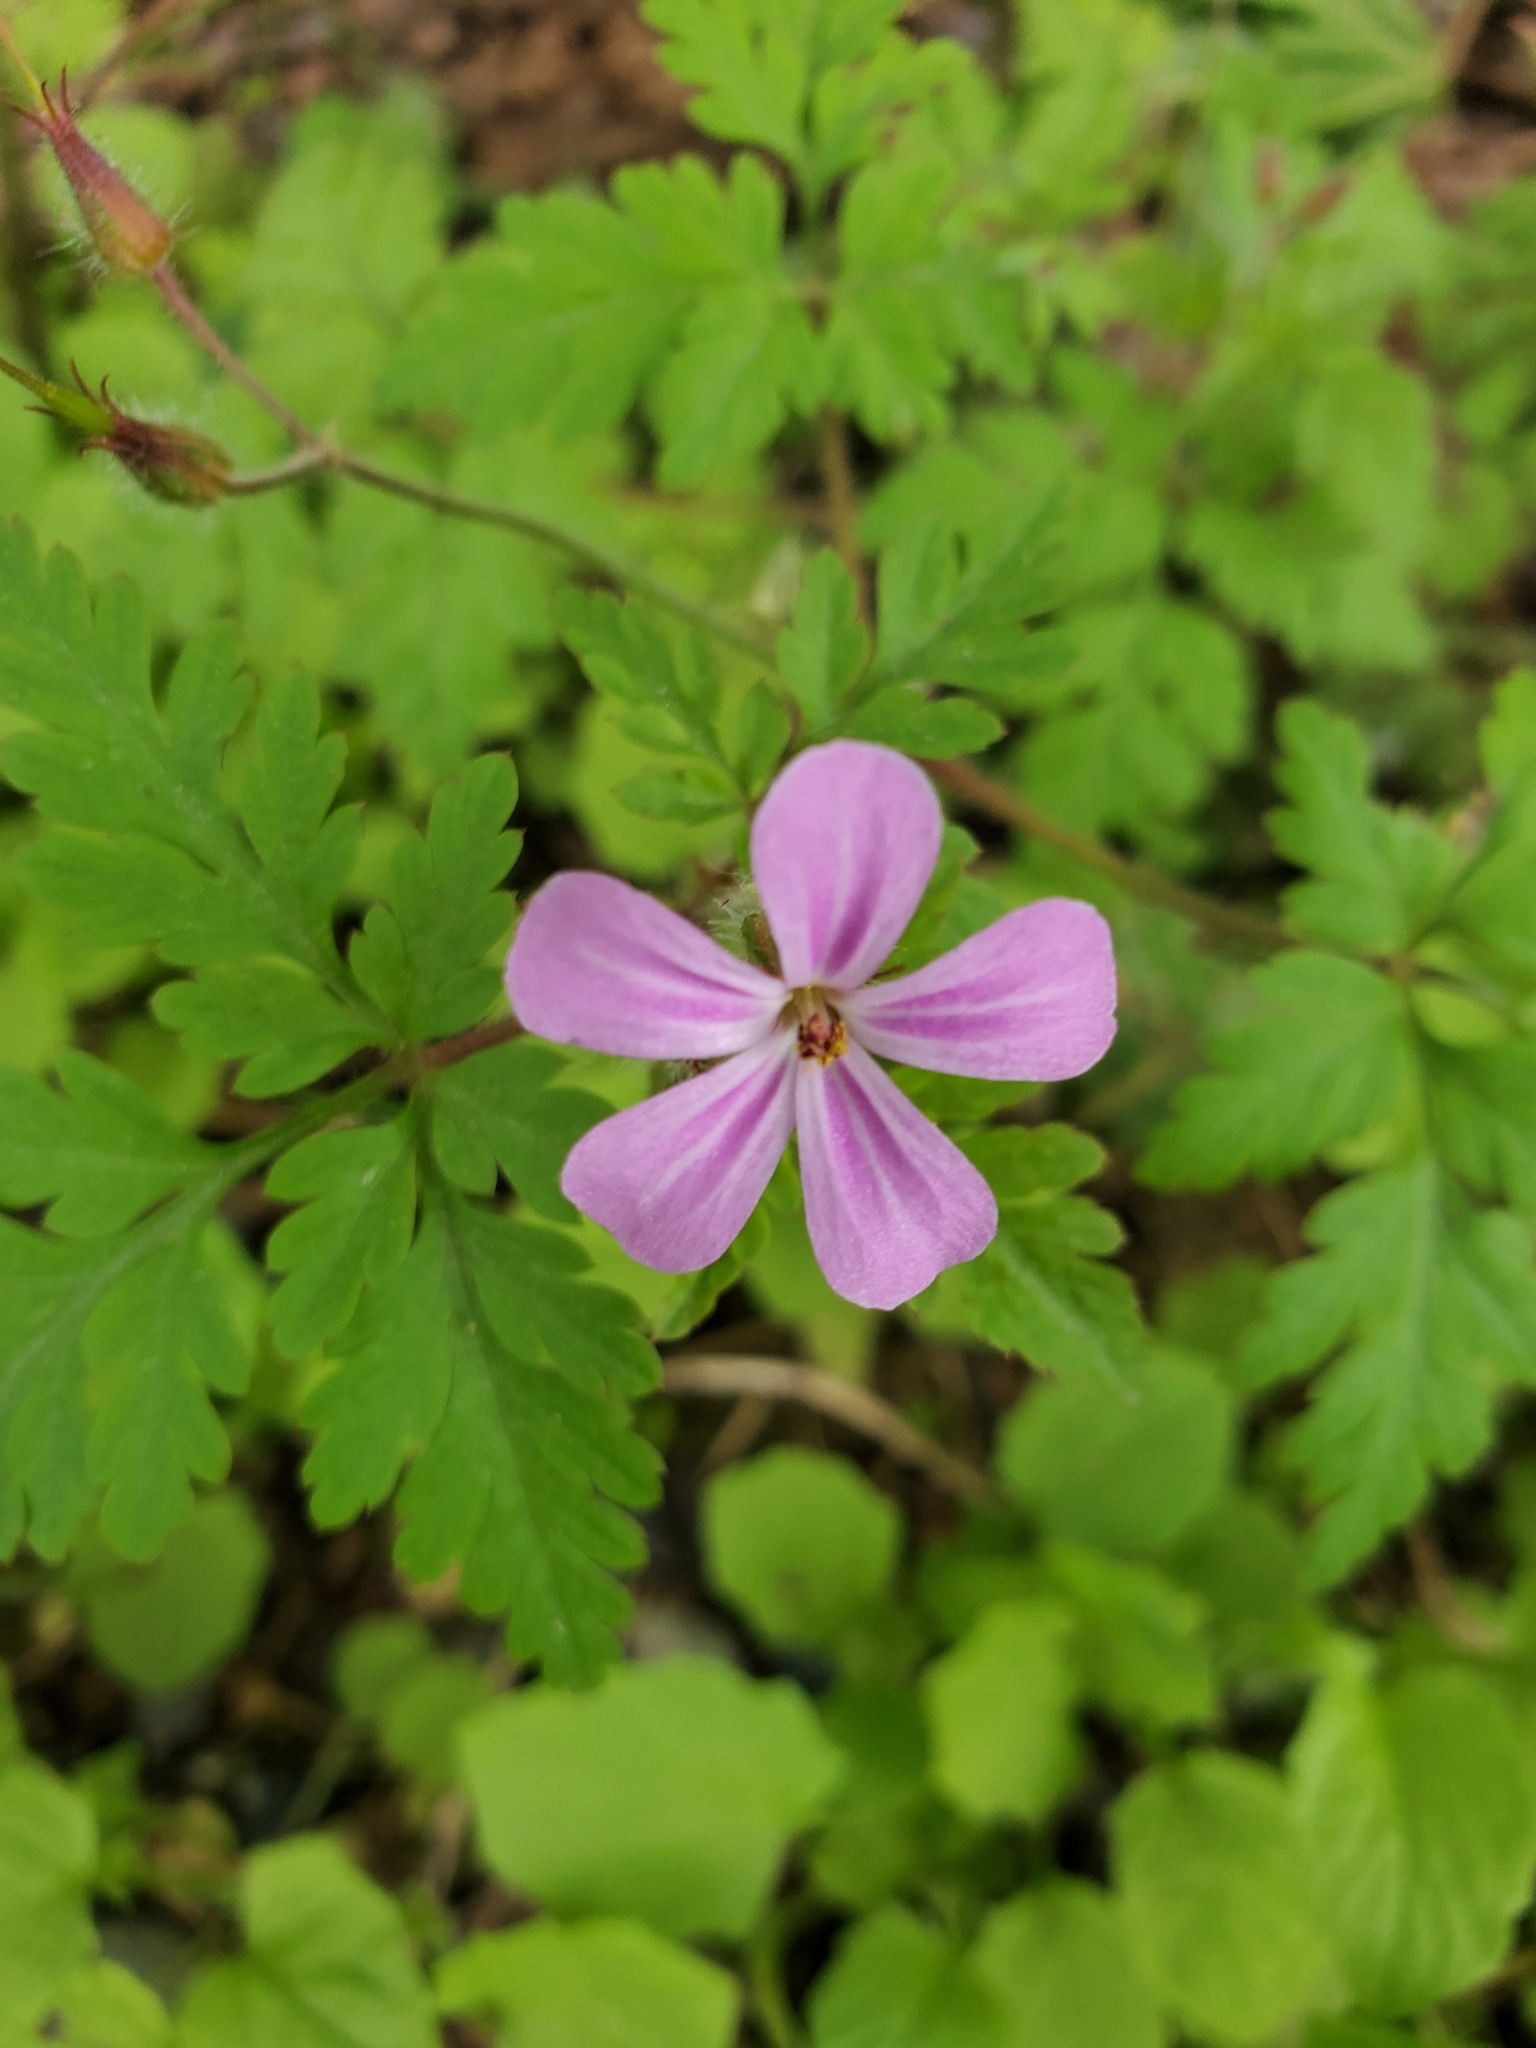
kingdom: Plantae
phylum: Tracheophyta
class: Magnoliopsida
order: Geraniales
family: Geraniaceae
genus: Geranium
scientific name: Geranium robertianum
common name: Herb-robert
